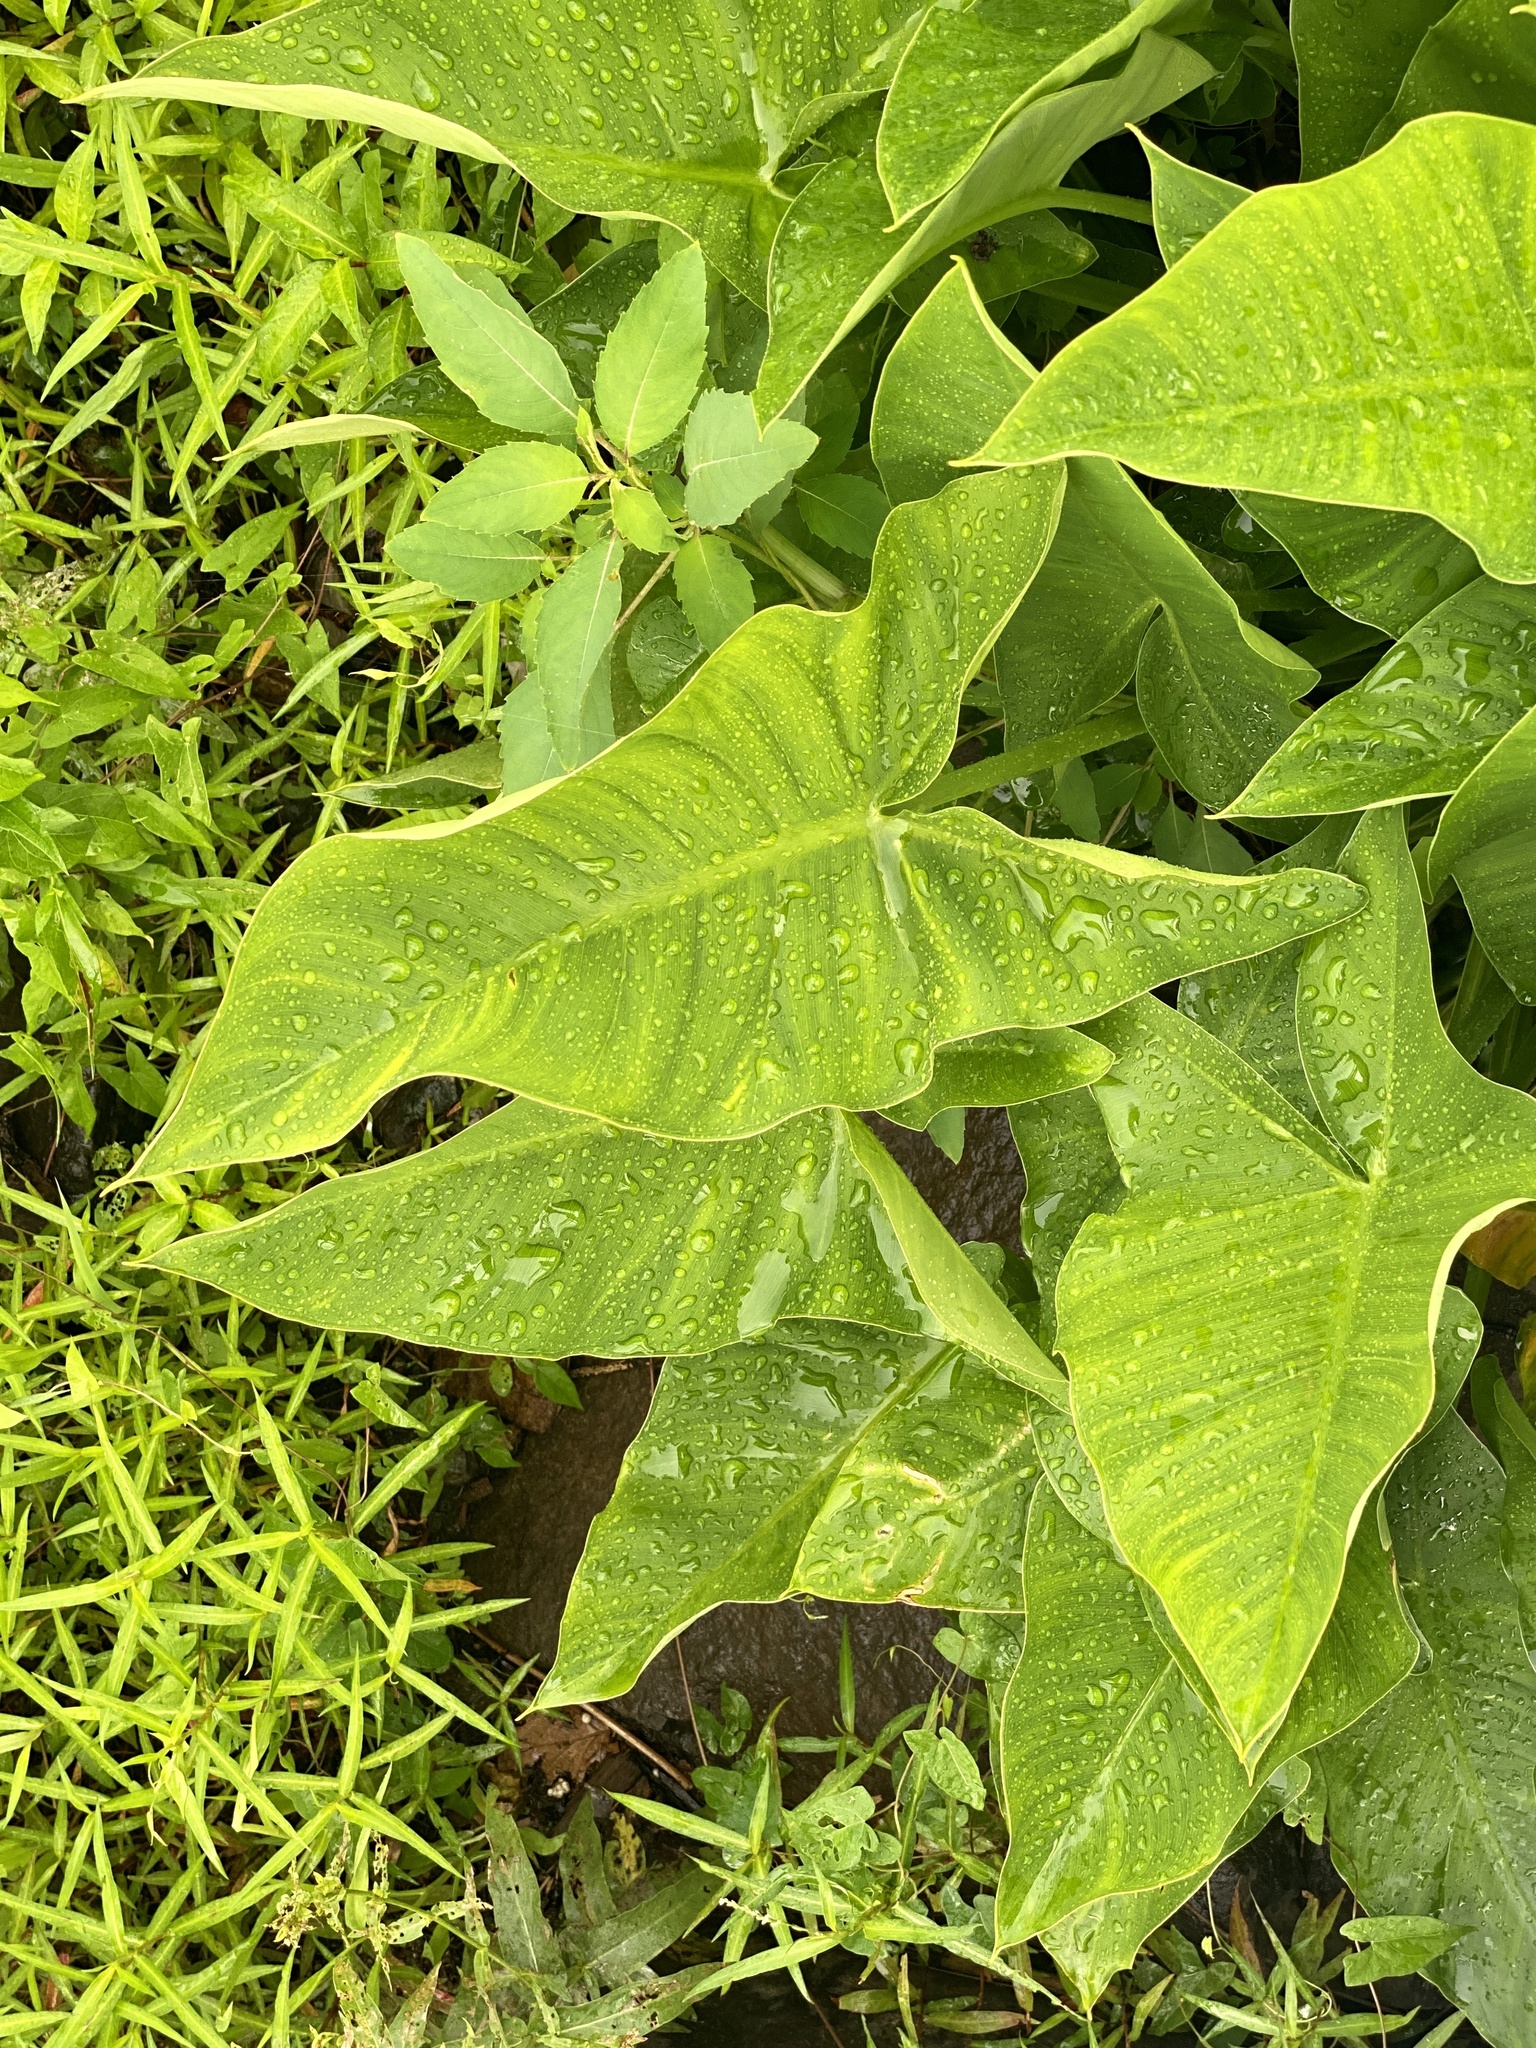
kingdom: Plantae
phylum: Tracheophyta
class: Liliopsida
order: Alismatales
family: Araceae
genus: Peltandra
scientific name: Peltandra virginica
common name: Arrow arum
